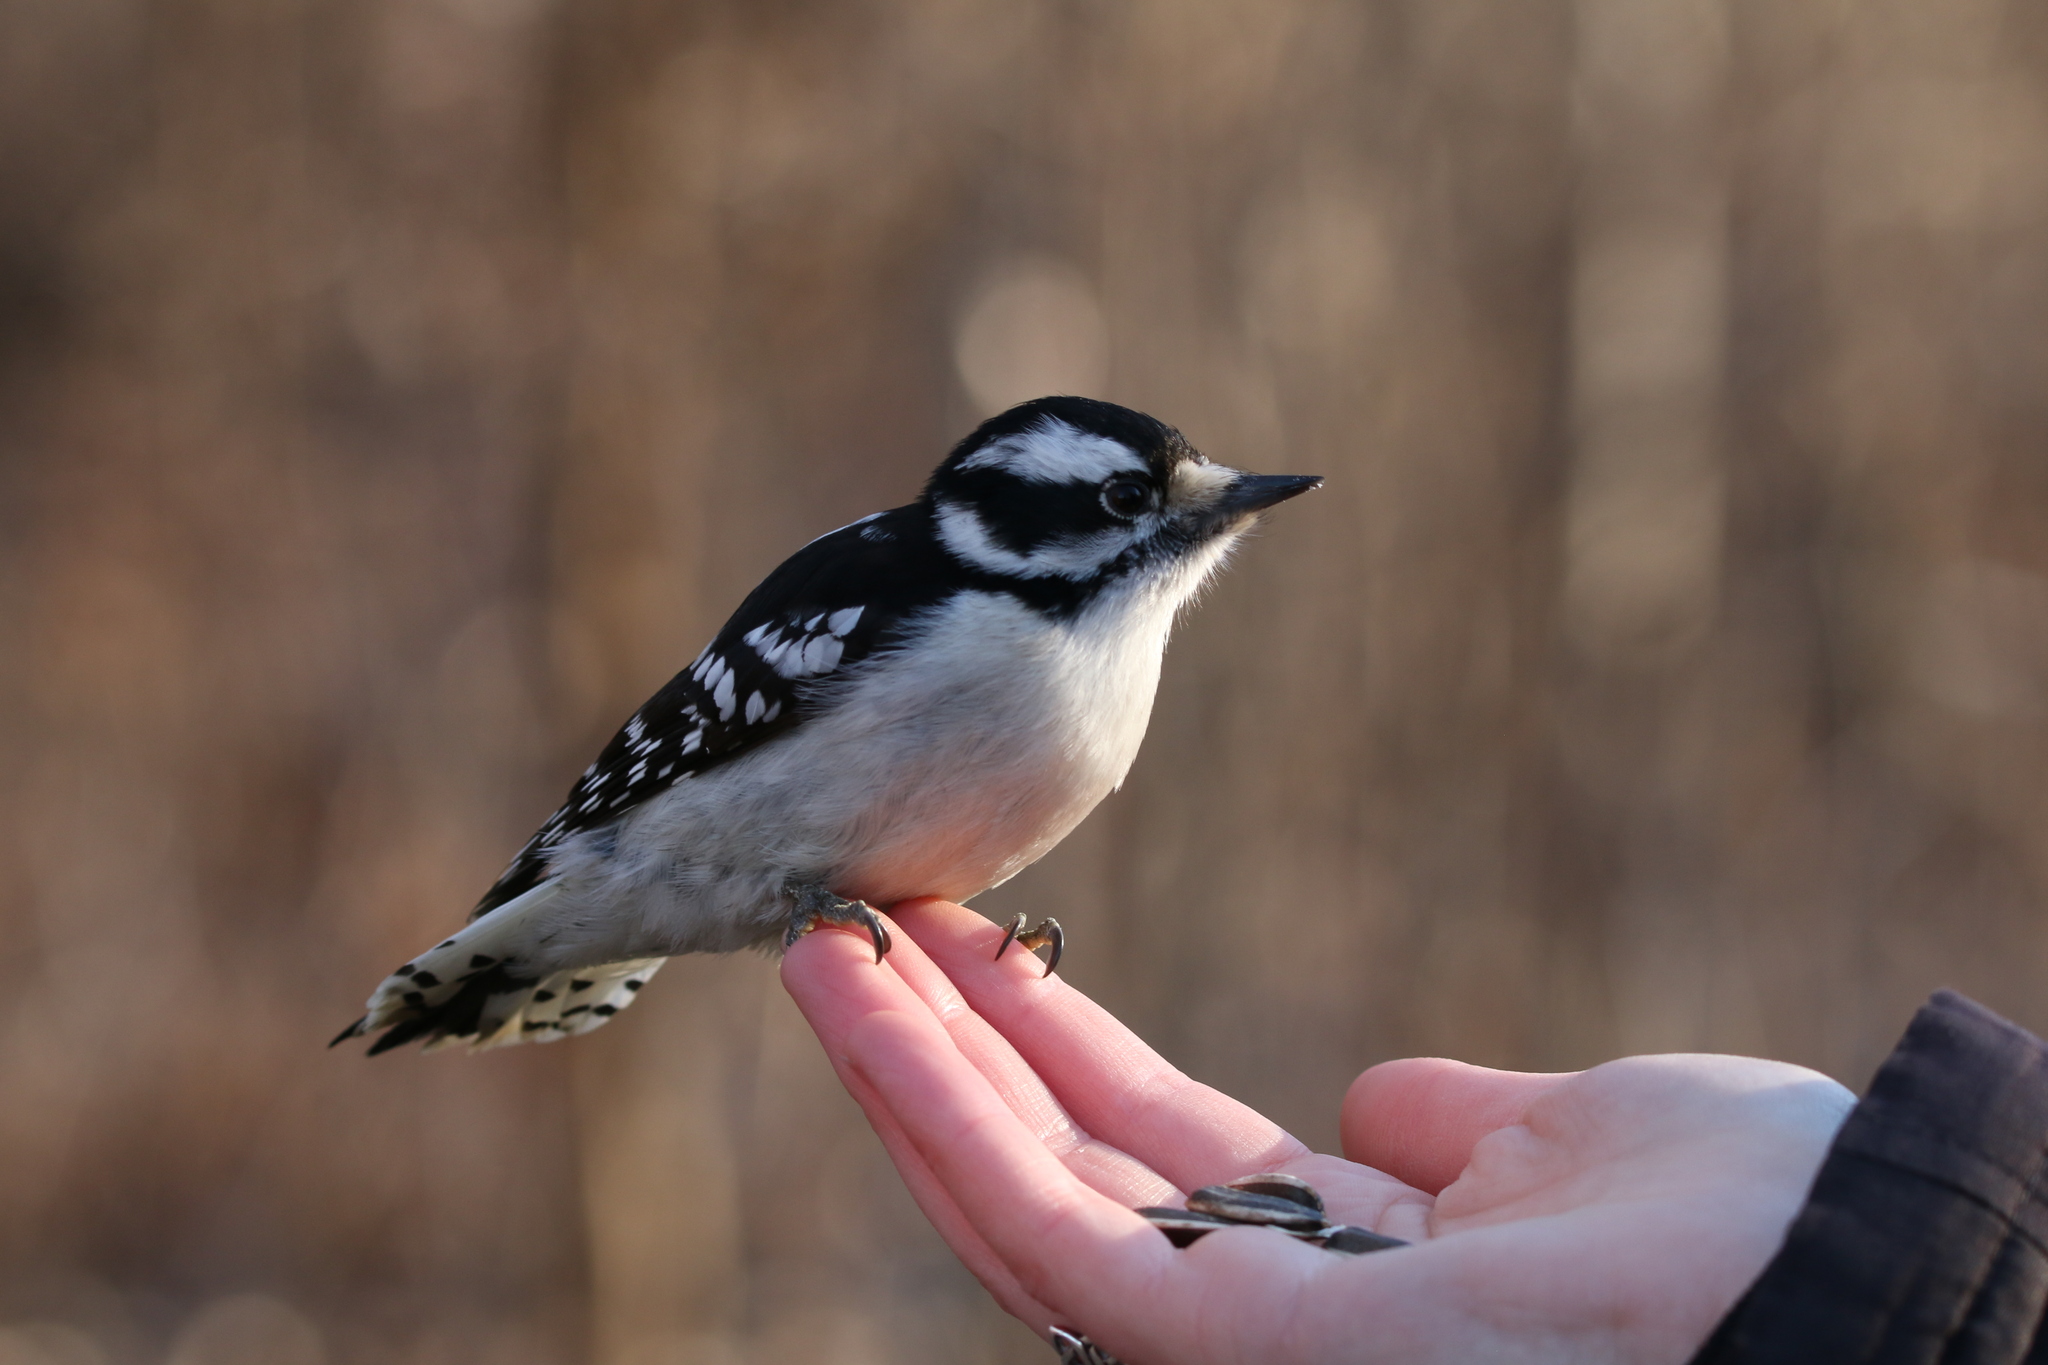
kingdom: Animalia
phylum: Chordata
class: Aves
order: Piciformes
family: Picidae
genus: Dryobates
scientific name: Dryobates pubescens
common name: Downy woodpecker
